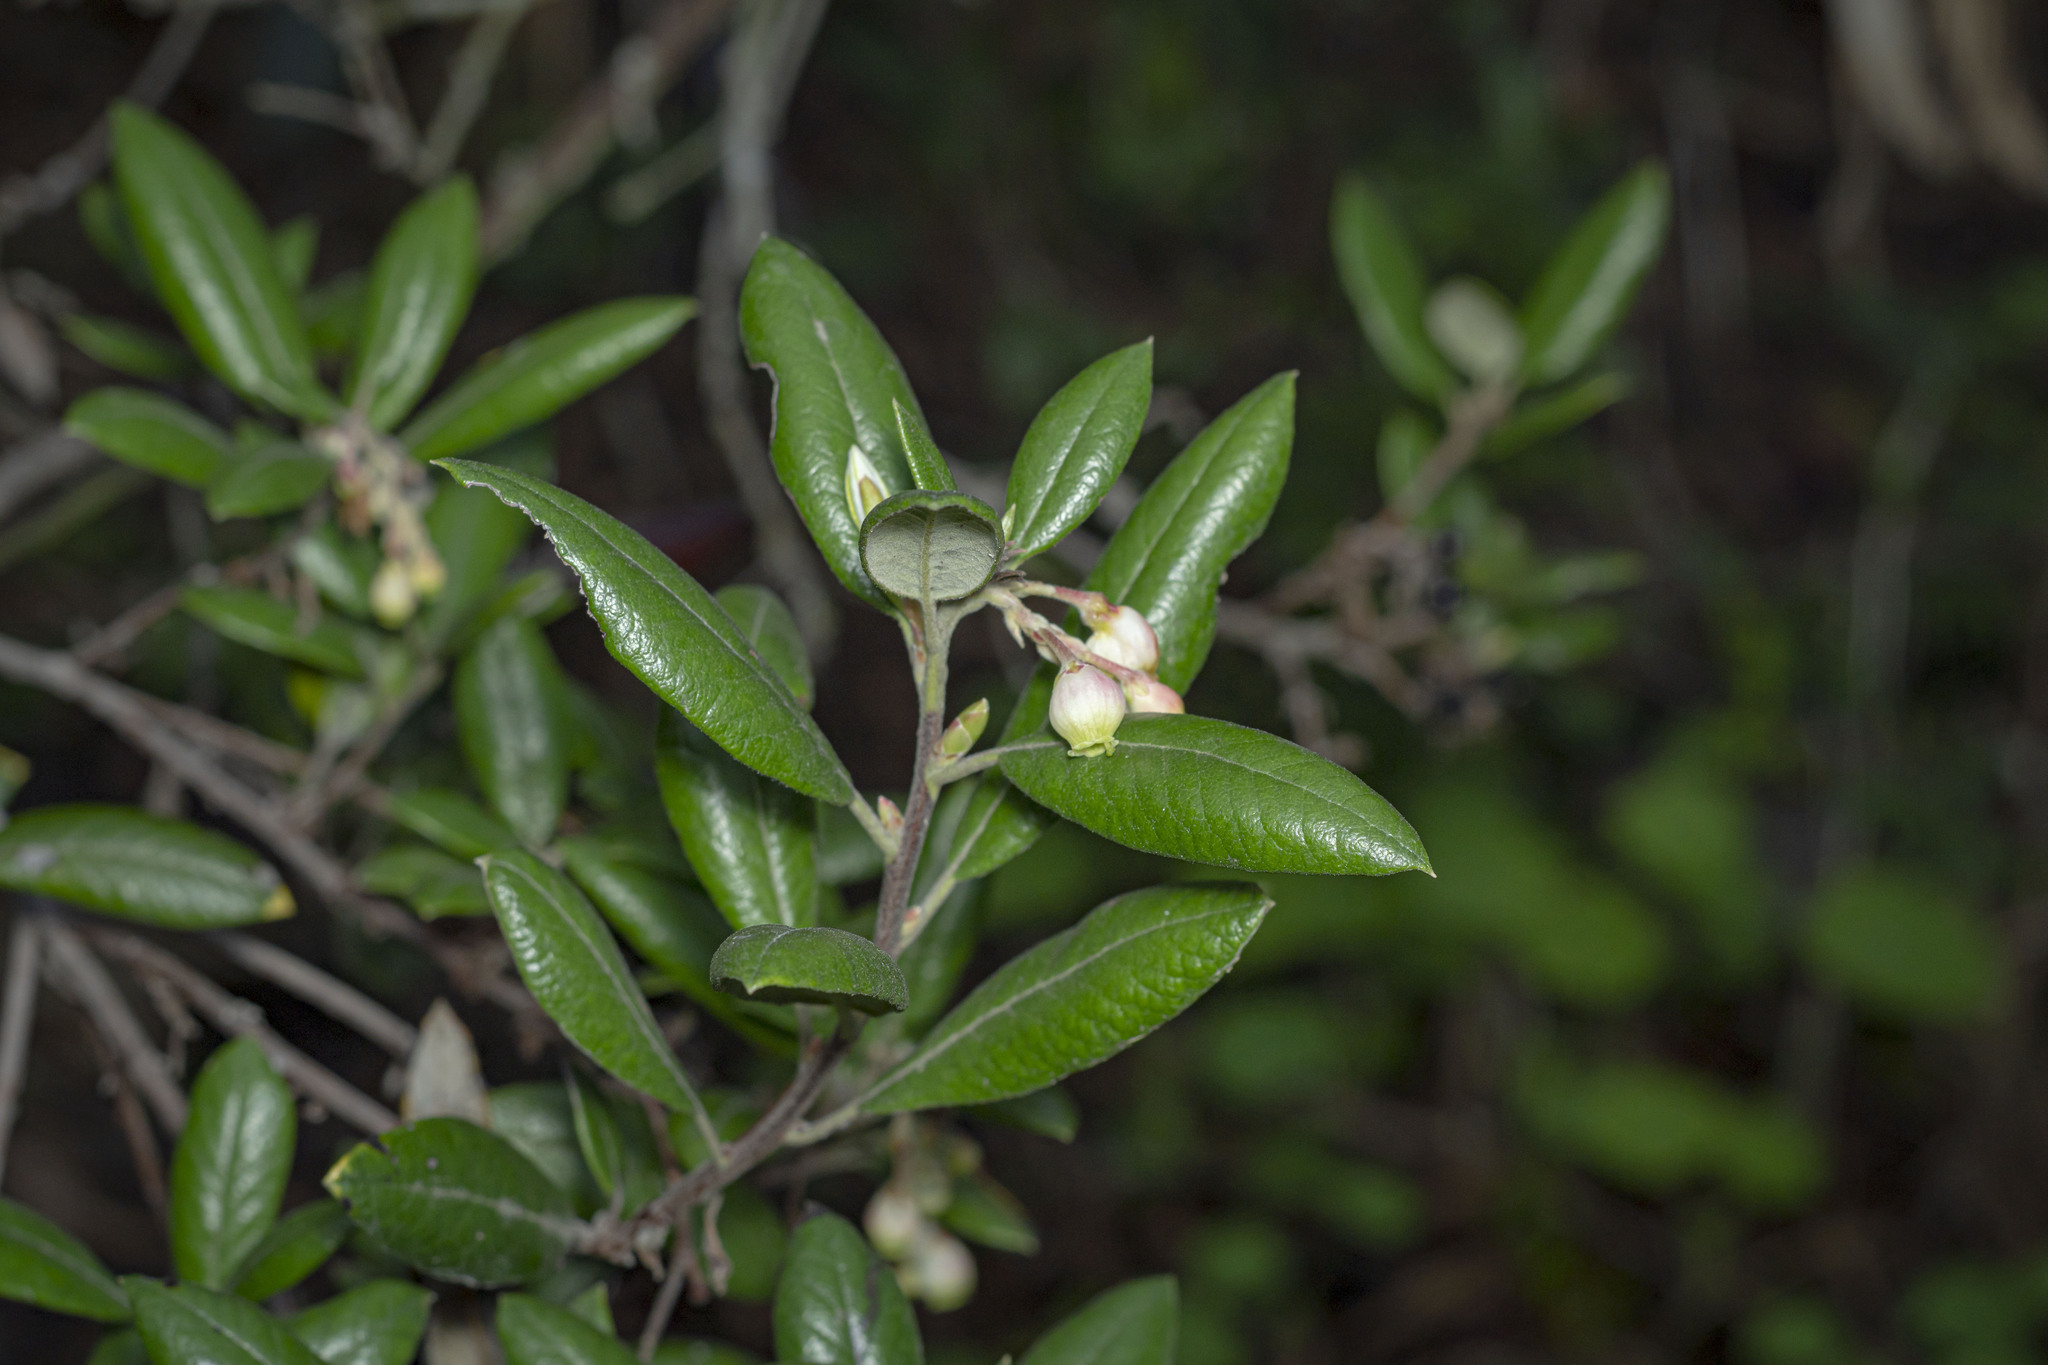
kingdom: Plantae
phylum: Tracheophyta
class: Magnoliopsida
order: Ericales
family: Ericaceae
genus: Arctostaphylos
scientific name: Arctostaphylos bicolor
